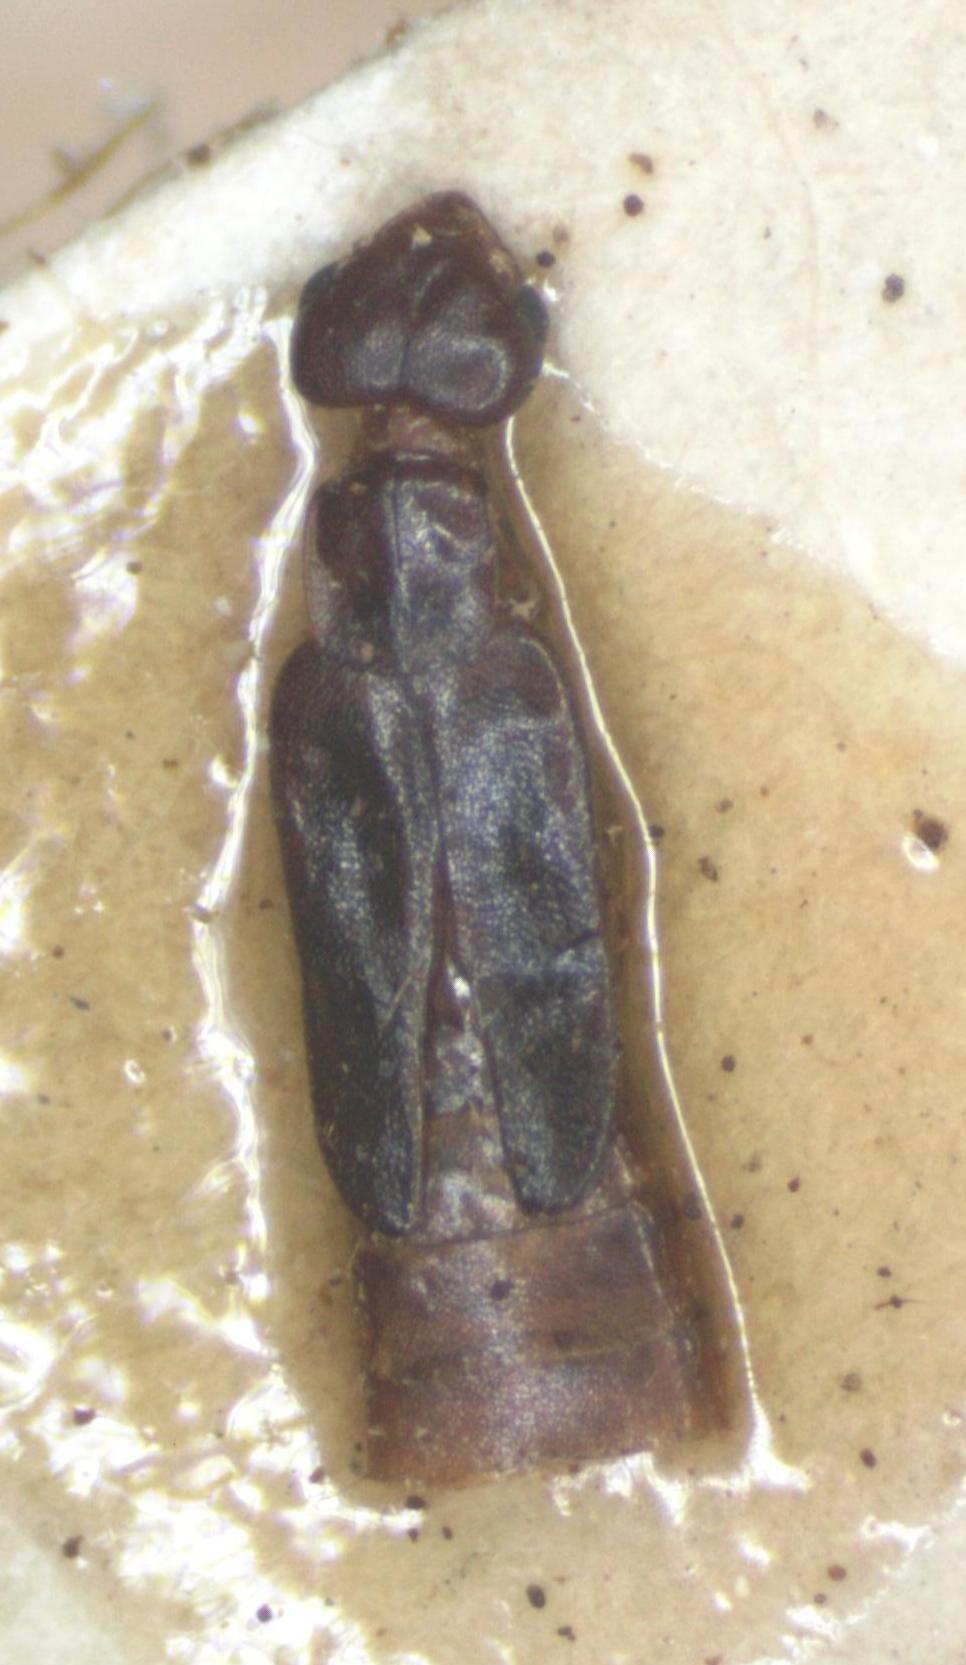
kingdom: Animalia
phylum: Arthropoda
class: Insecta
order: Dermaptera
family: Spongiphoridae
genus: Paralabella
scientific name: Paralabella curvicauda
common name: Earwig
